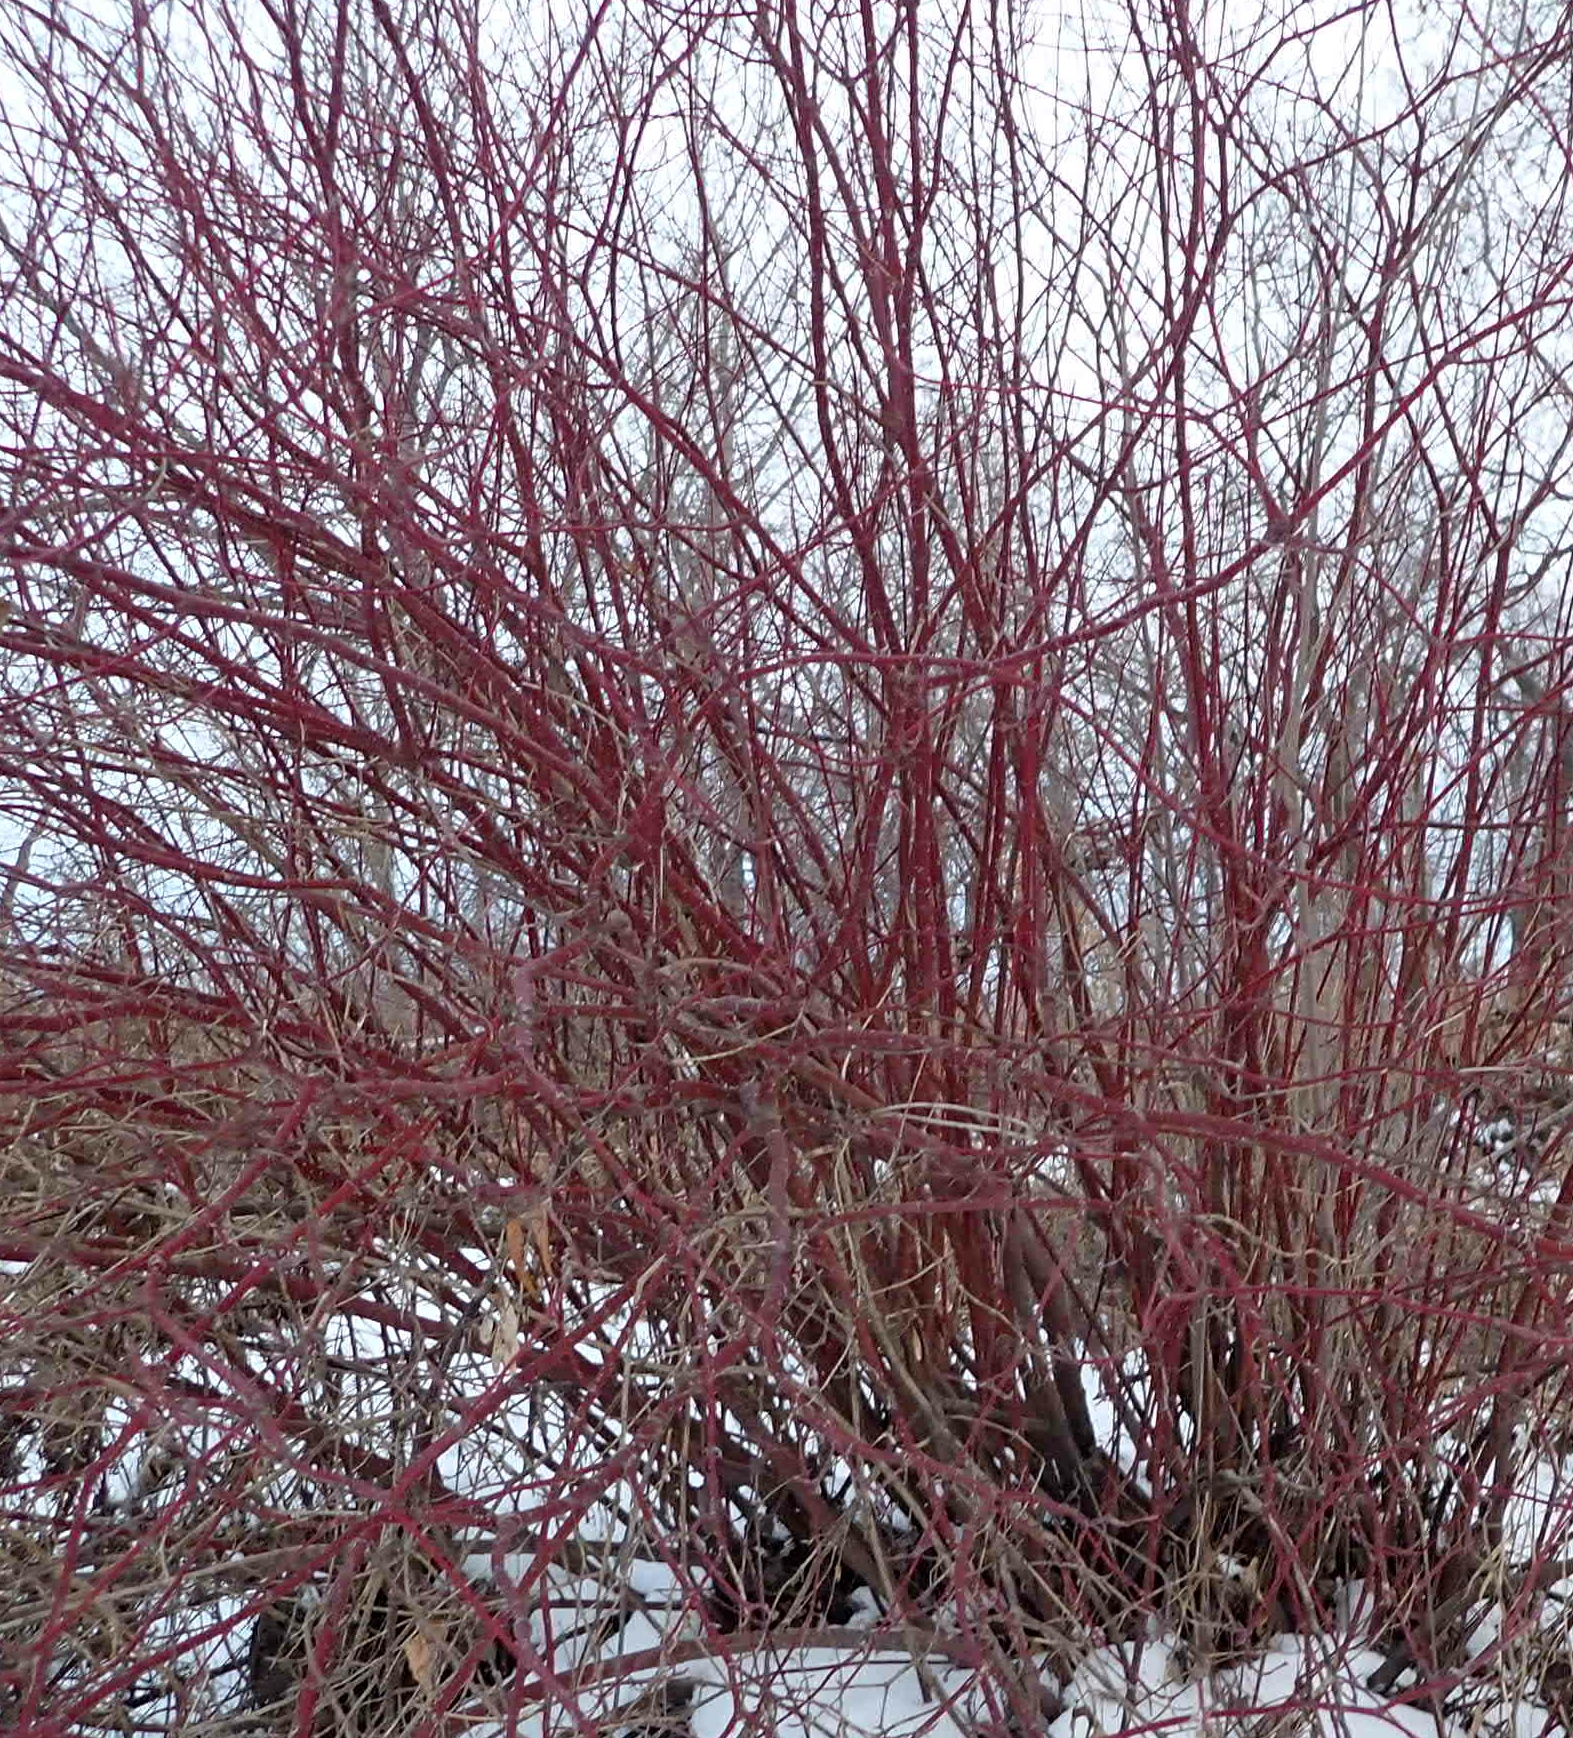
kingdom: Plantae
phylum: Tracheophyta
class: Magnoliopsida
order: Cornales
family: Cornaceae
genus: Cornus
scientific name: Cornus sericea
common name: Red-osier dogwood
